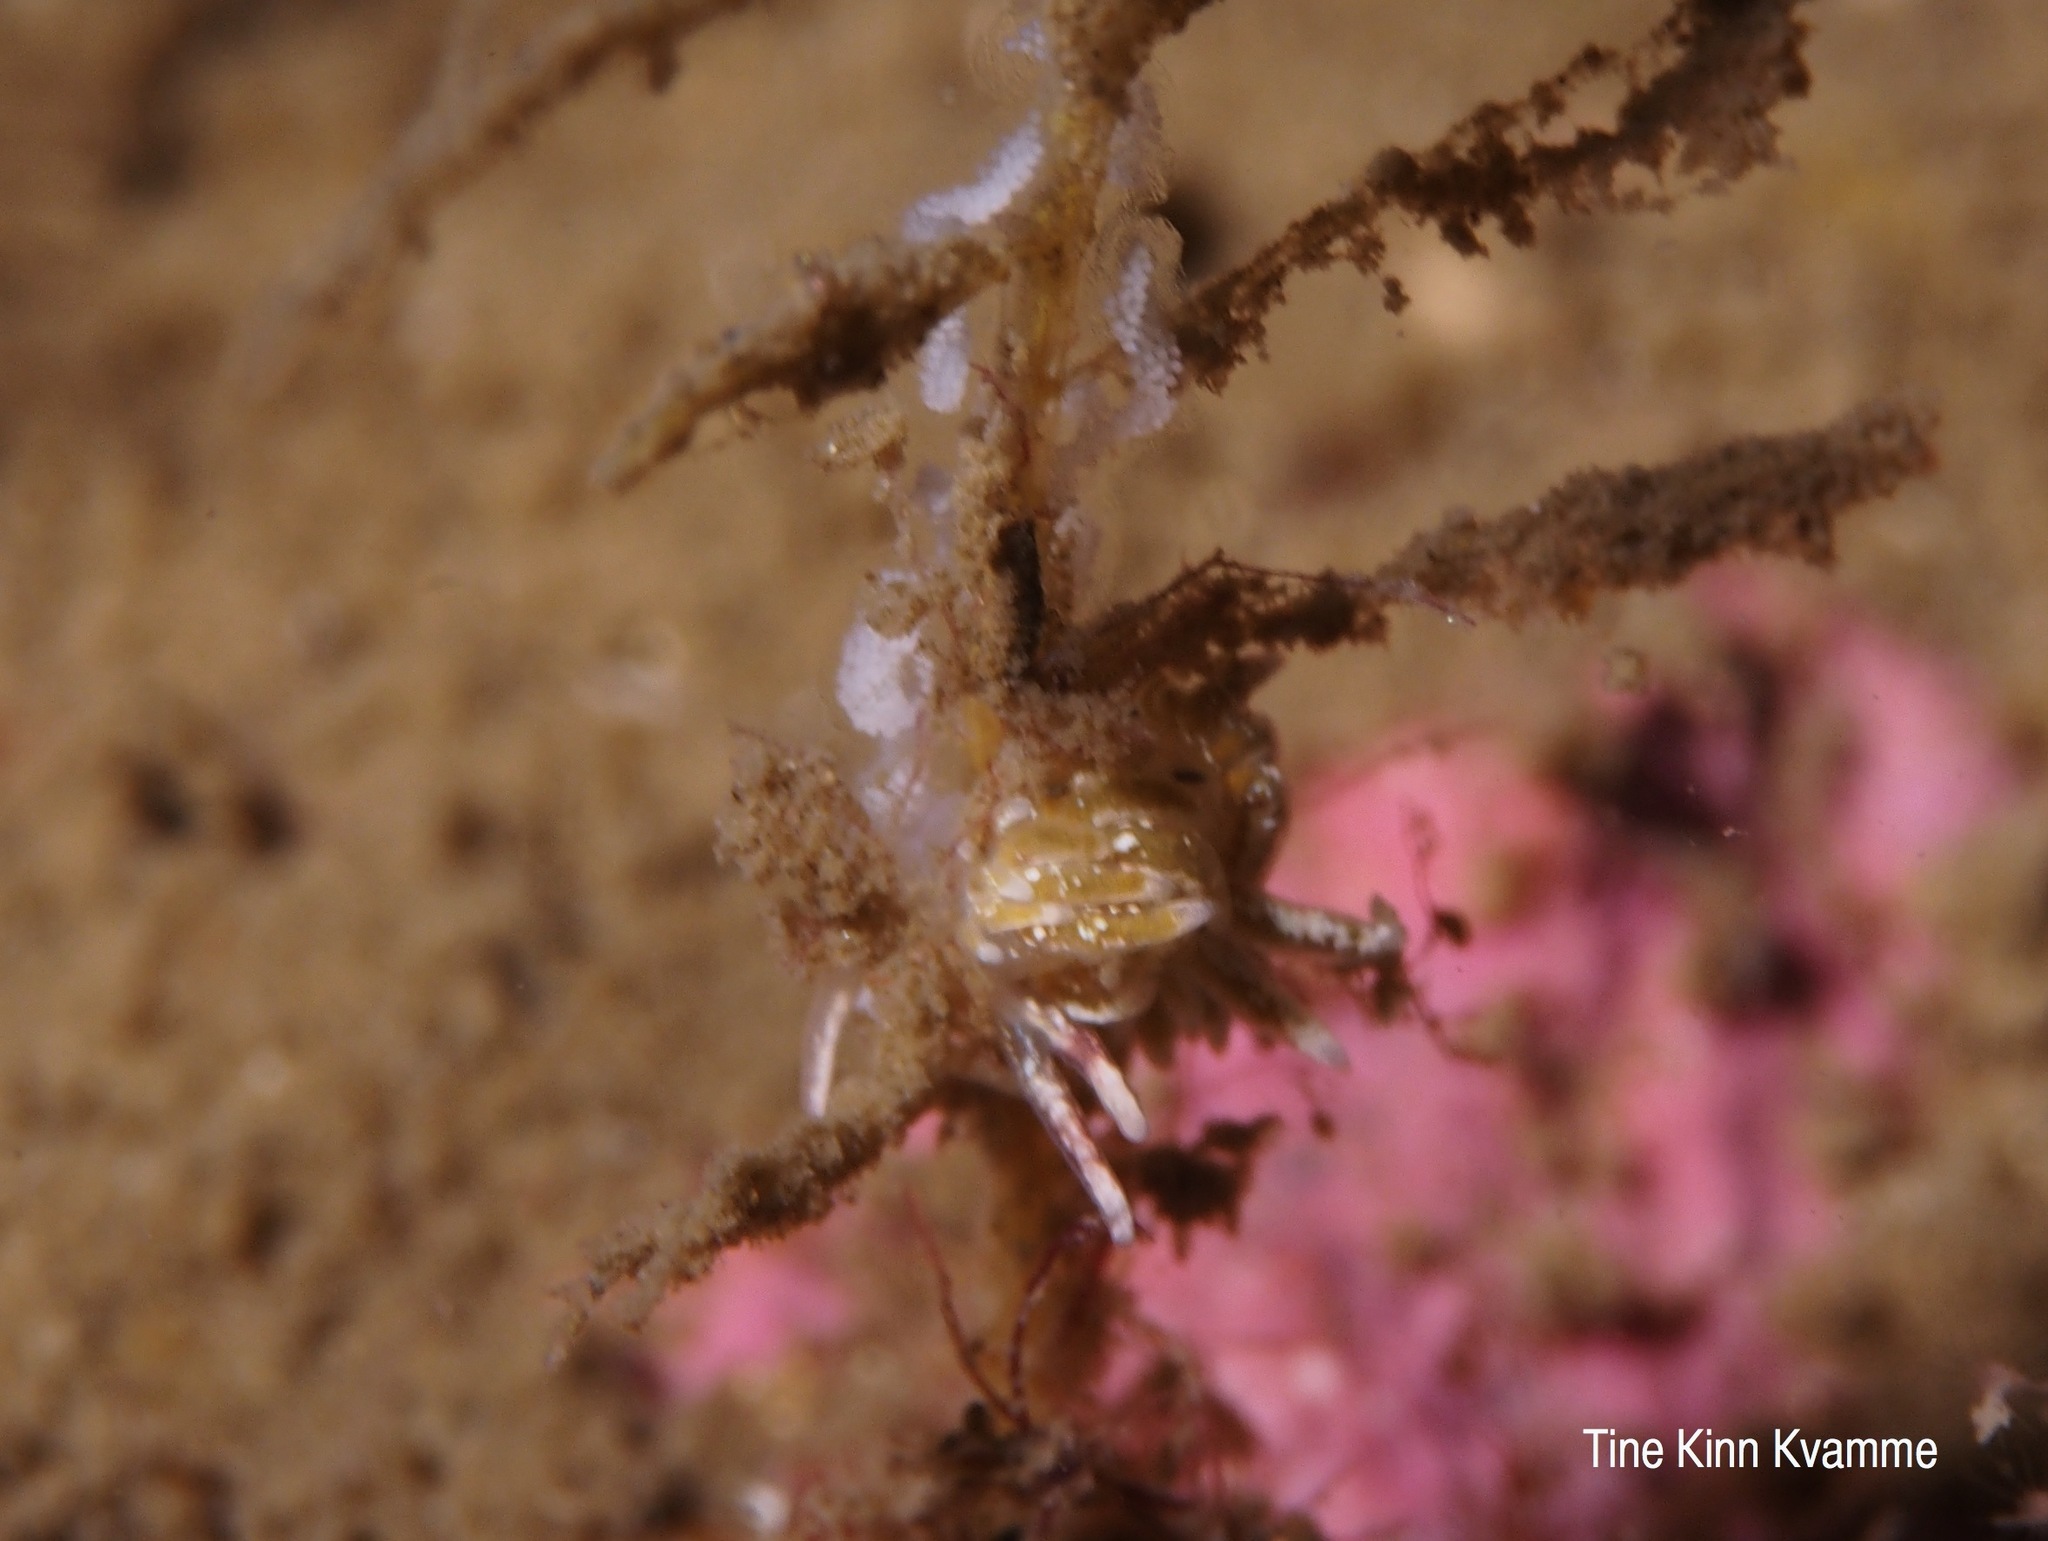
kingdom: Animalia
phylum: Mollusca
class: Gastropoda
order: Nudibranchia
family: Trinchesiidae
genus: Rubramoena
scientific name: Rubramoena rubescens
